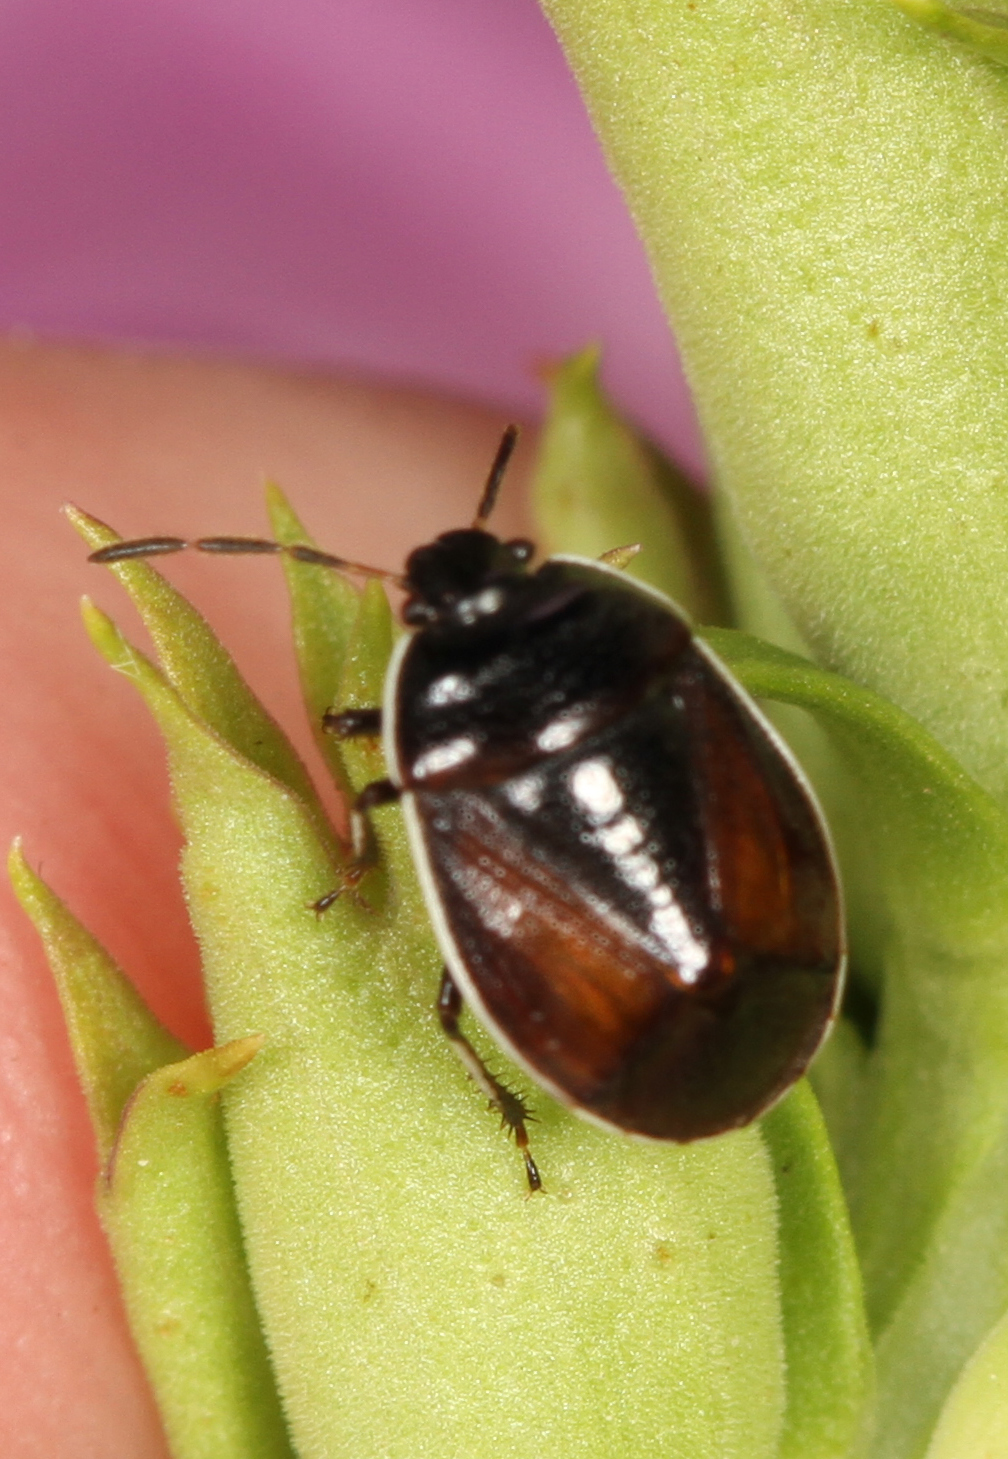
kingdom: Animalia
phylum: Arthropoda
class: Insecta
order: Hemiptera
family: Cydnidae
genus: Sehirus
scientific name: Sehirus cinctus
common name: White-margined burrower bug
